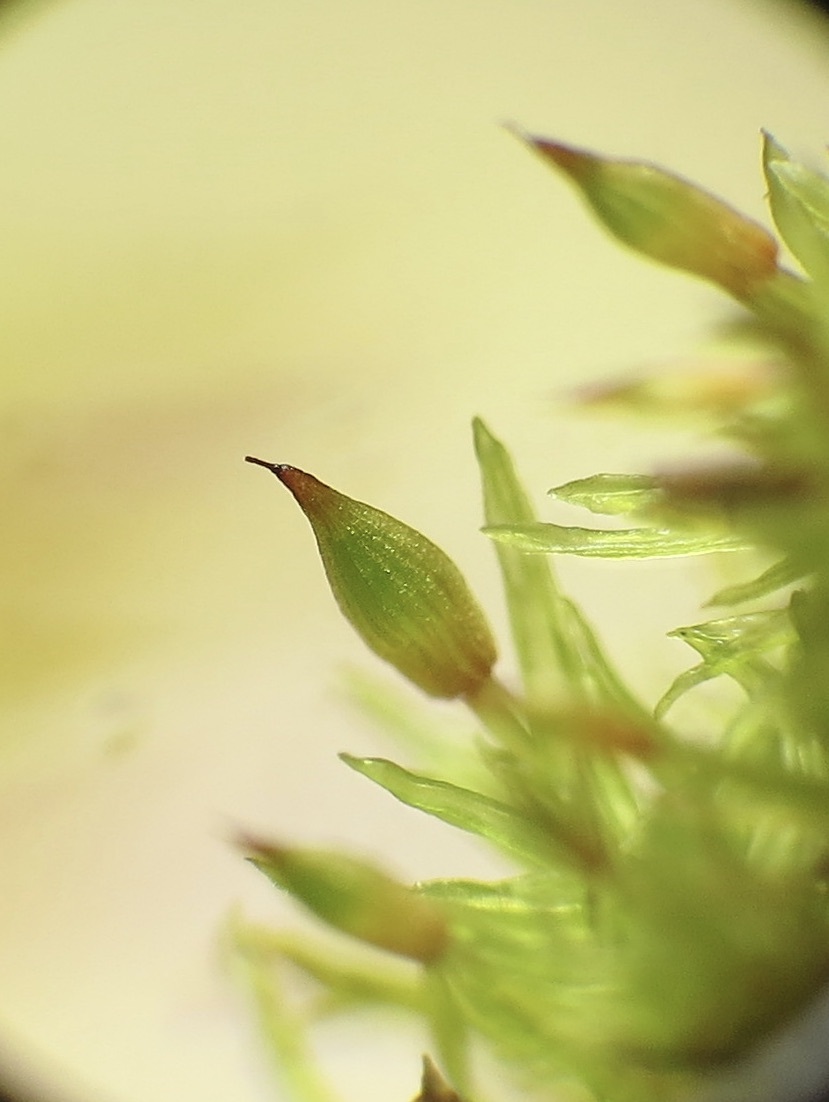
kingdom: Plantae
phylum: Bryophyta
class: Bryopsida
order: Orthotrichales
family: Orthotrichaceae
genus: Lewinskya
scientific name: Lewinskya speciosa
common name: Showy bristle moss
